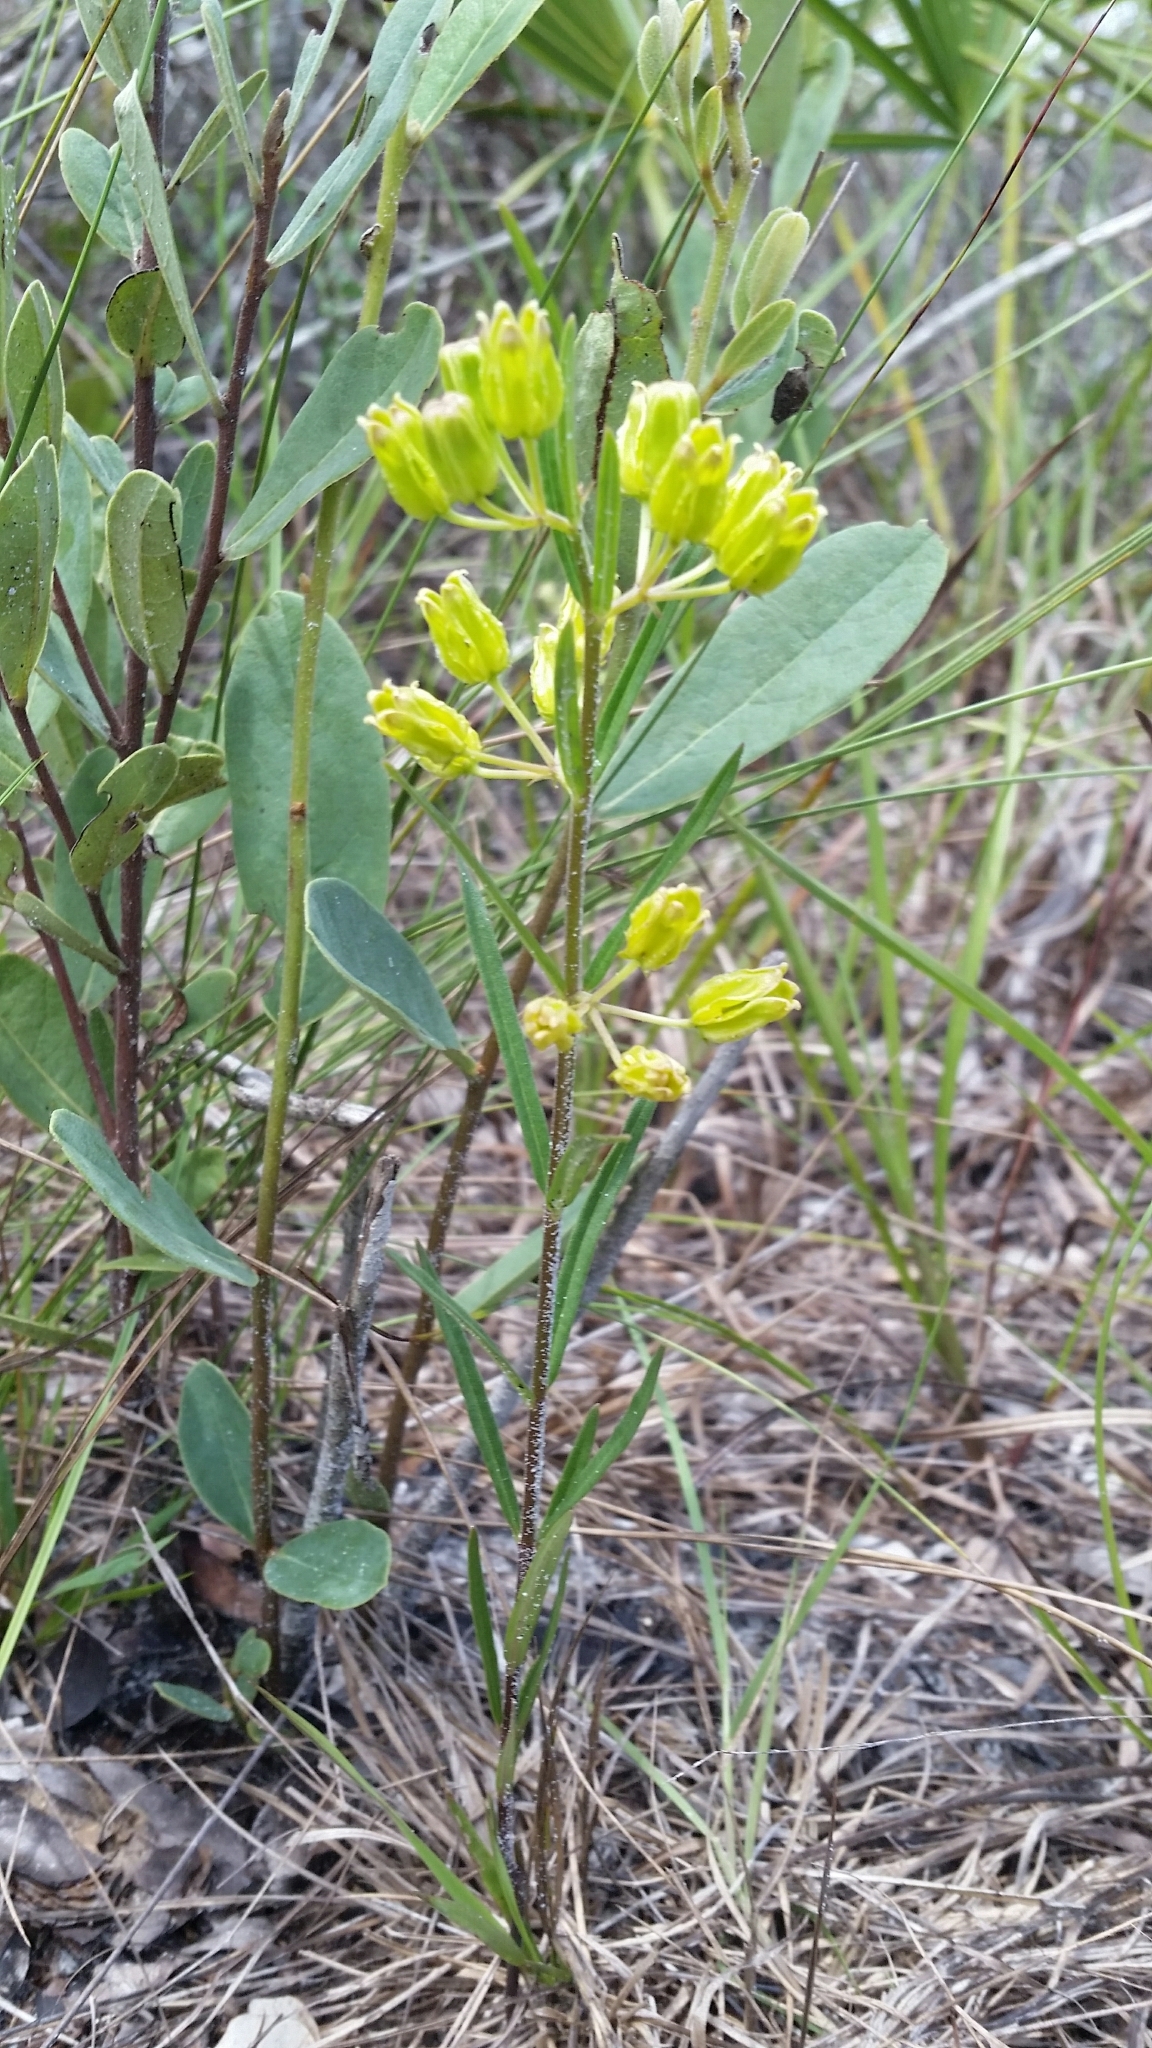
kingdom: Plantae
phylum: Tracheophyta
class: Magnoliopsida
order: Gentianales
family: Apocynaceae
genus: Asclepias
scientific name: Asclepias pedicellata
